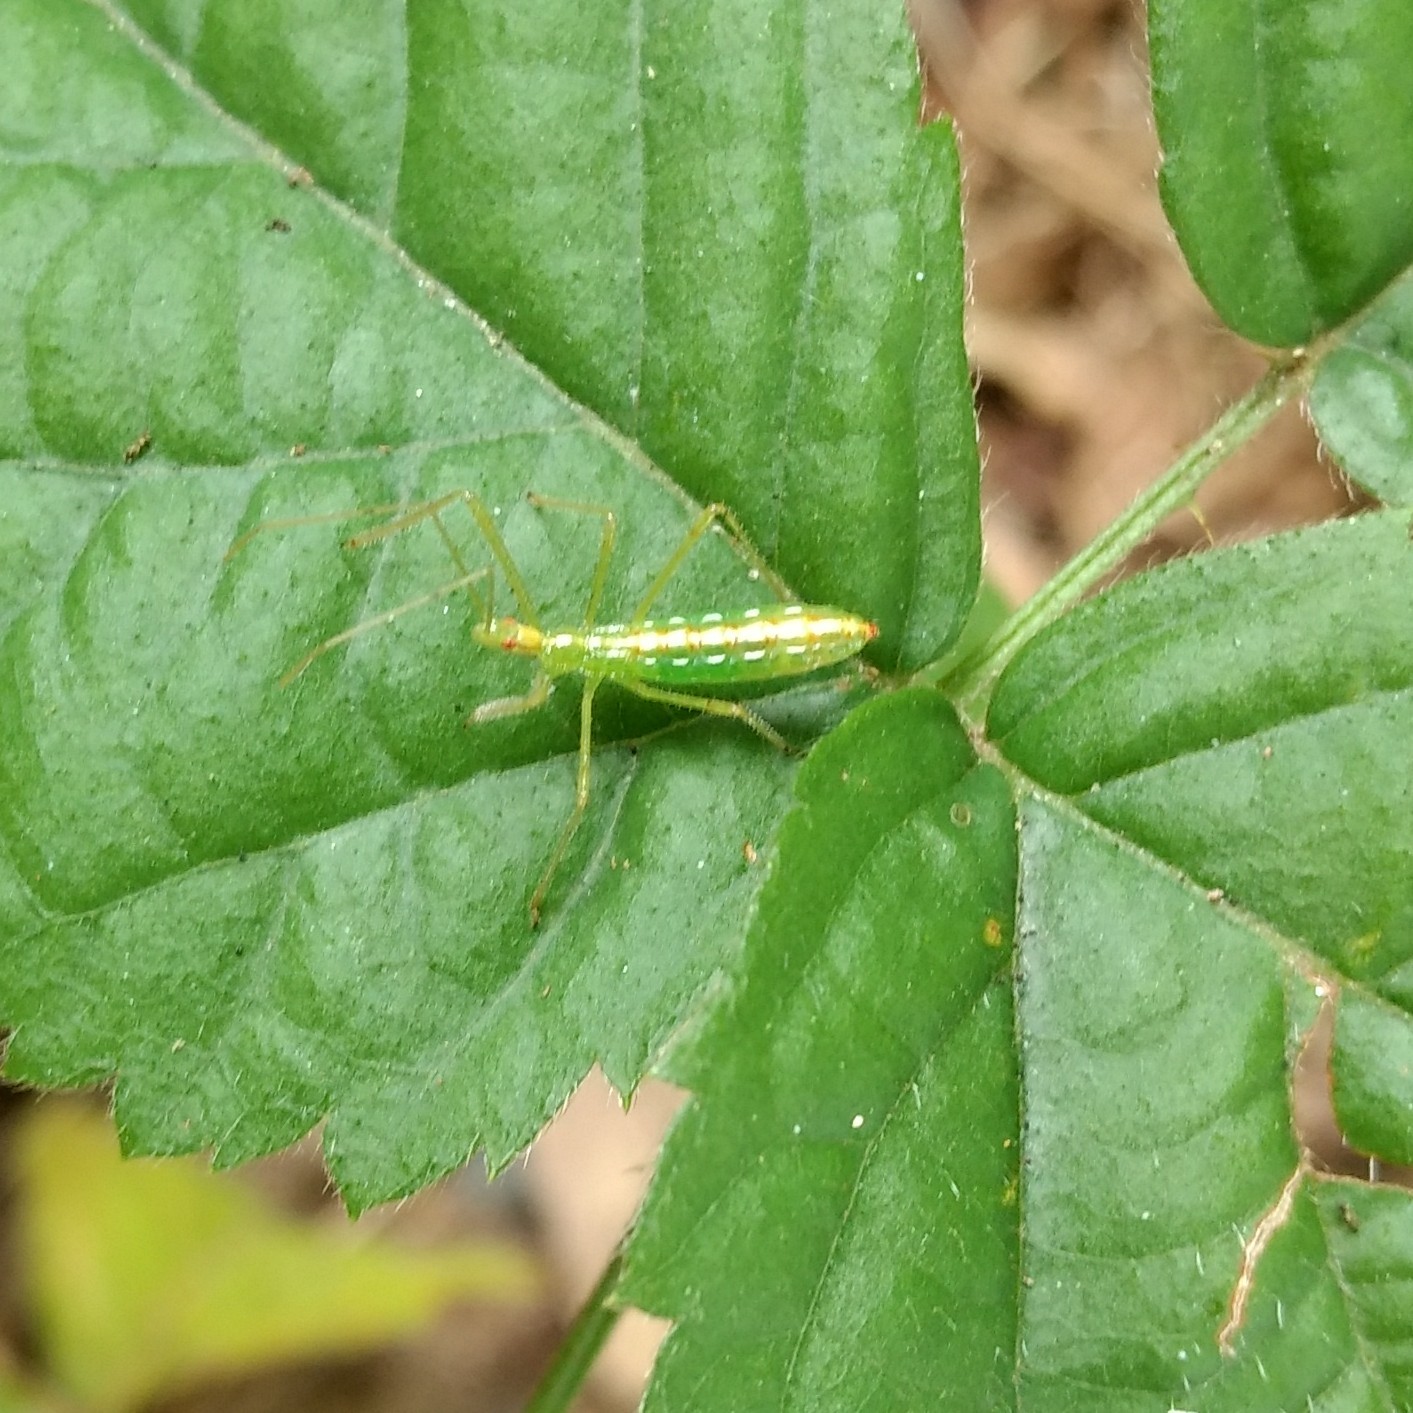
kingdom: Animalia
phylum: Arthropoda
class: Insecta
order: Hemiptera
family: Reduviidae
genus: Zelus
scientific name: Zelus luridus
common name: Pale green assassin bug
